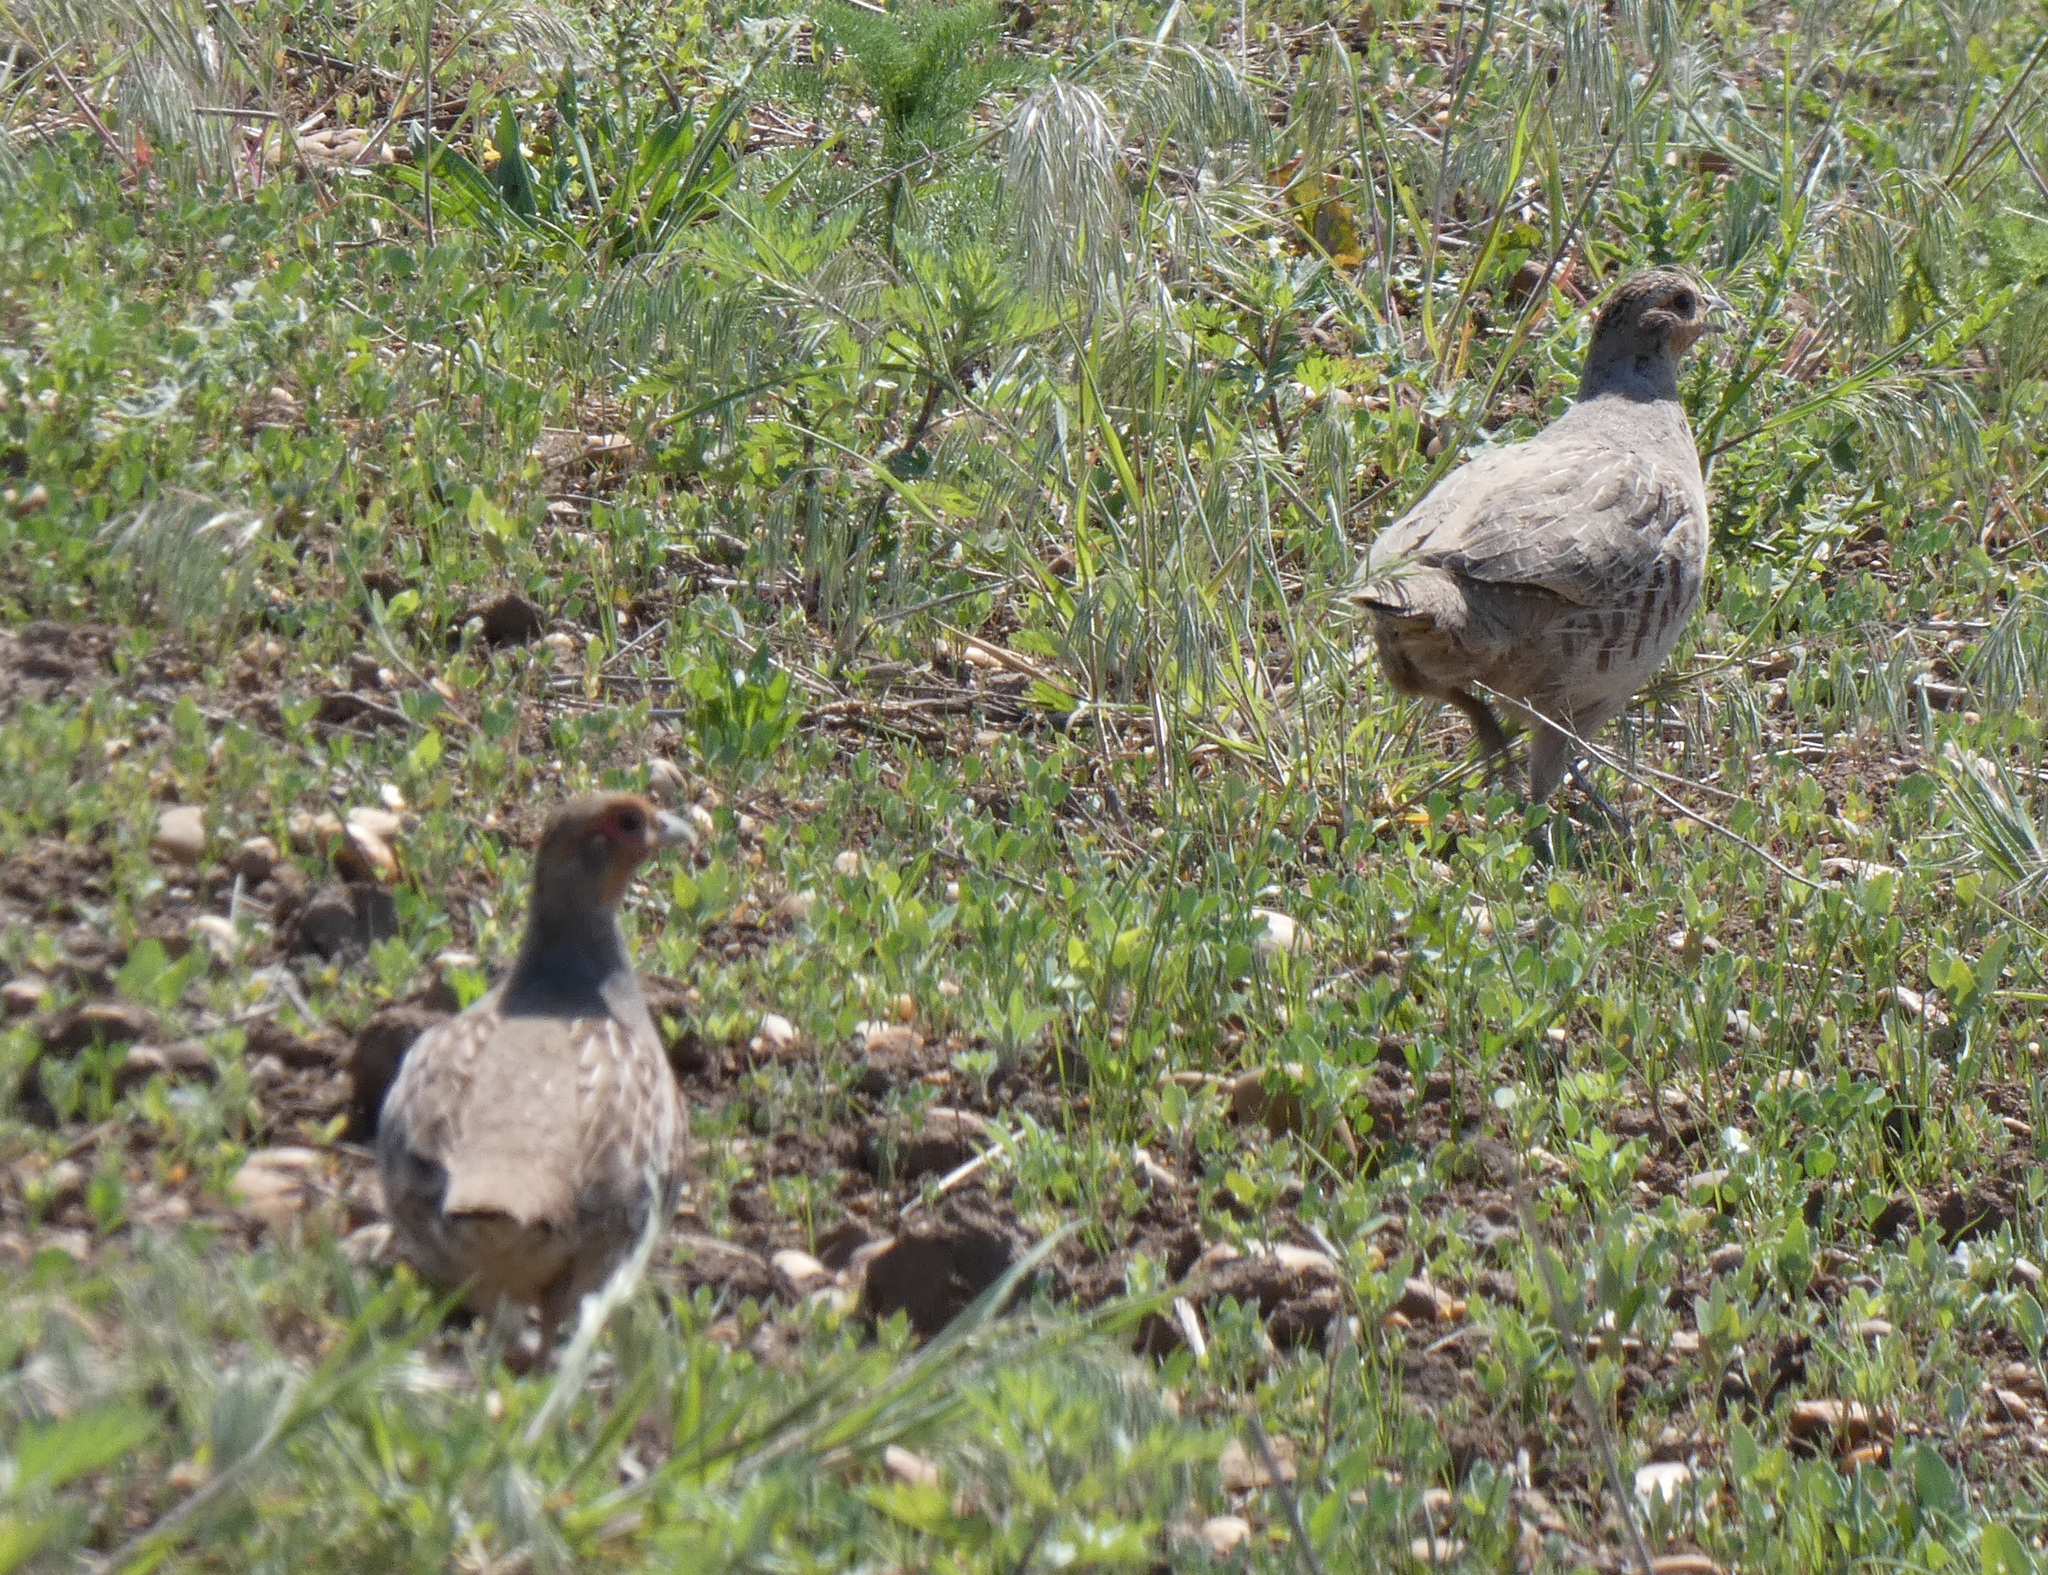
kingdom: Animalia
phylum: Chordata
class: Aves
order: Galliformes
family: Phasianidae
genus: Perdix
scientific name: Perdix perdix
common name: Grey partridge
